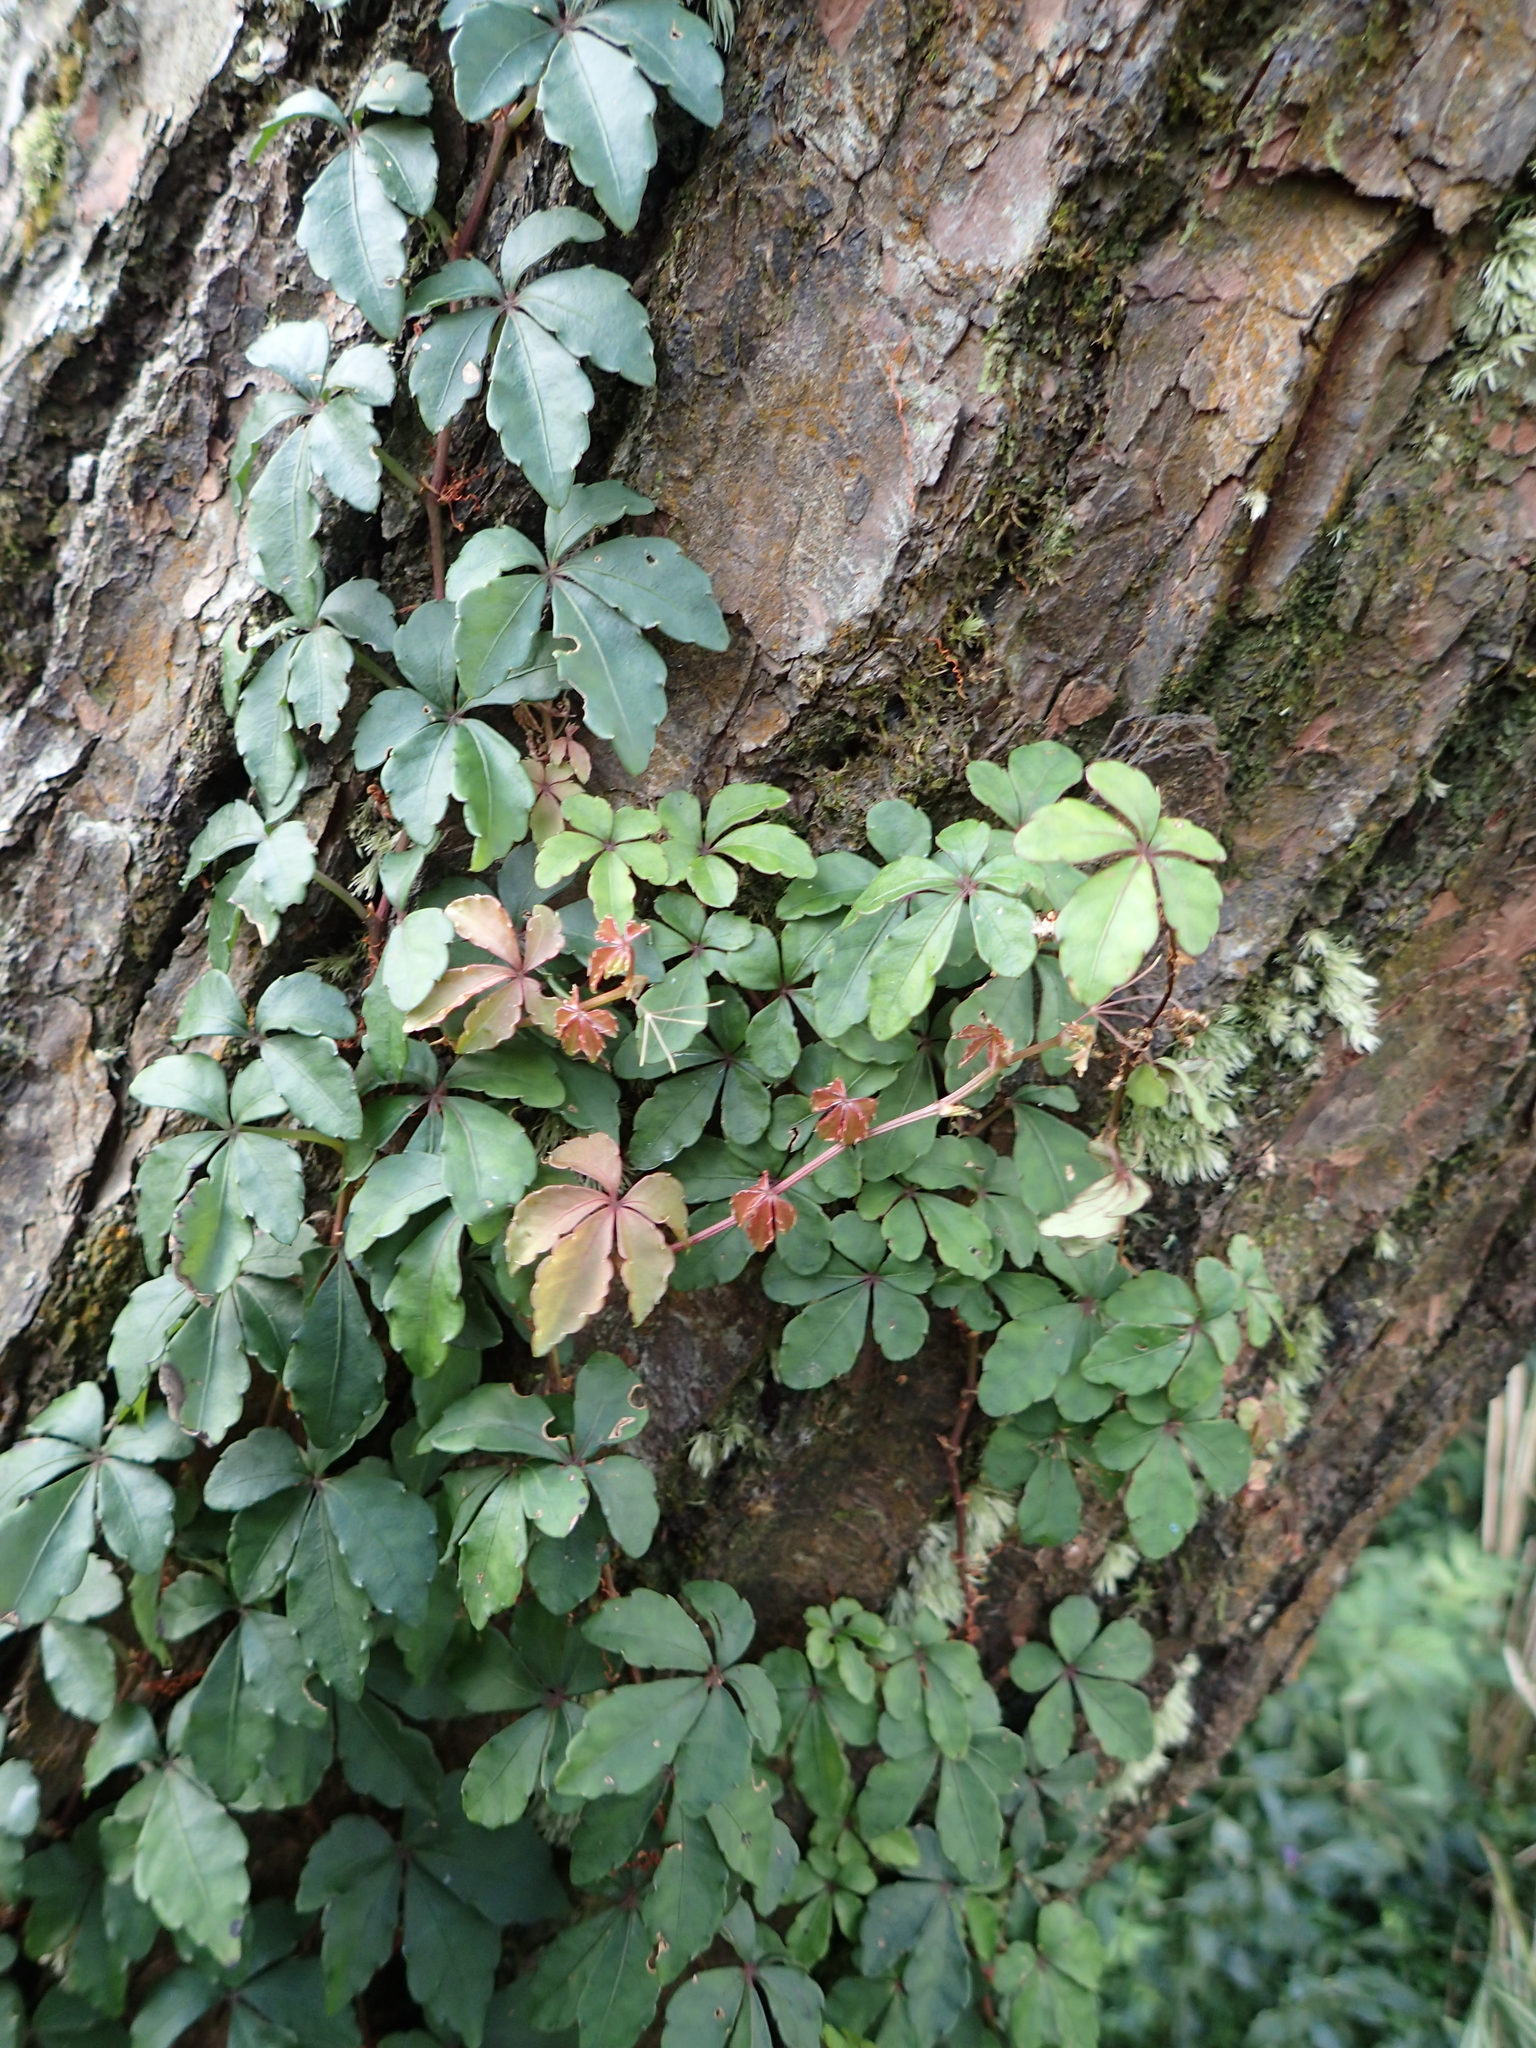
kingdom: Plantae
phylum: Tracheophyta
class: Magnoliopsida
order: Vitales
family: Vitaceae
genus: Tetrastigma
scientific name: Tetrastigma obtectum
